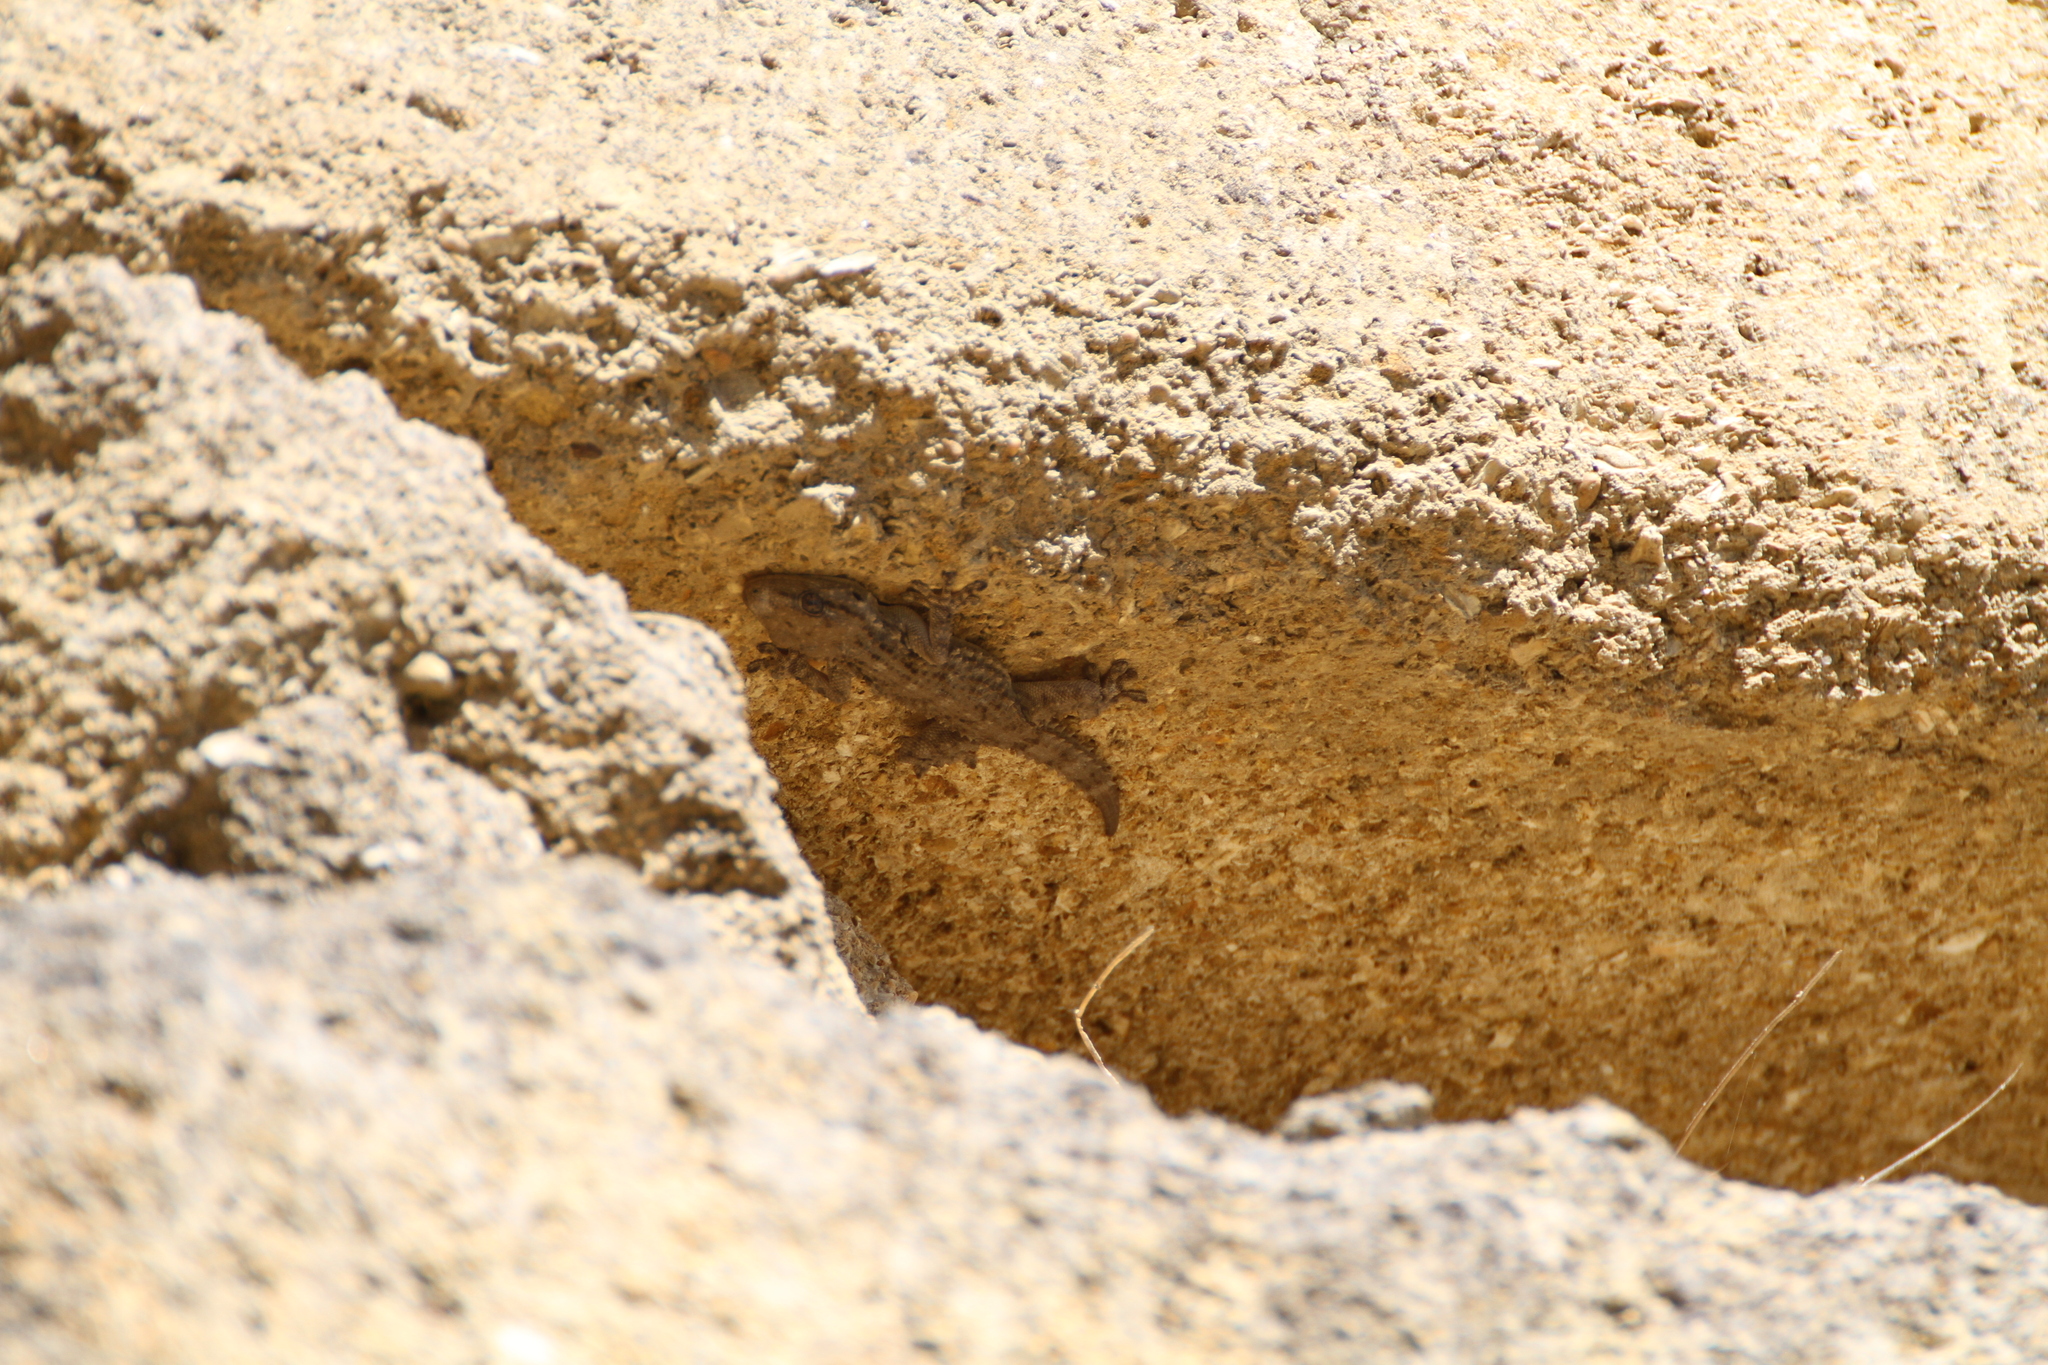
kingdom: Animalia
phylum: Chordata
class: Squamata
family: Phyllodactylidae
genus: Tarentola
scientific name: Tarentola mauritanica
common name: Moorish gecko
